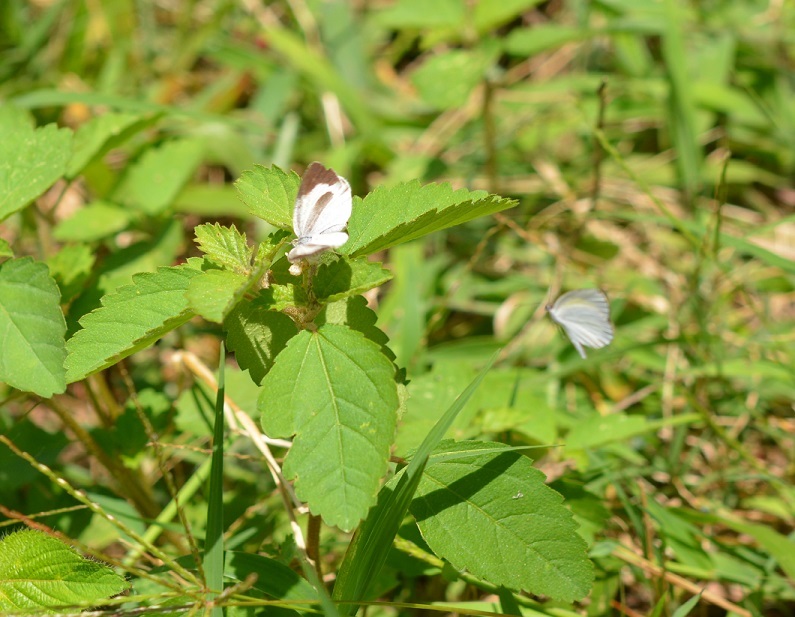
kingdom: Animalia
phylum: Arthropoda
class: Insecta
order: Lepidoptera
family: Pieridae
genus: Eurema
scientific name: Eurema daira
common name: Barred sulphur
